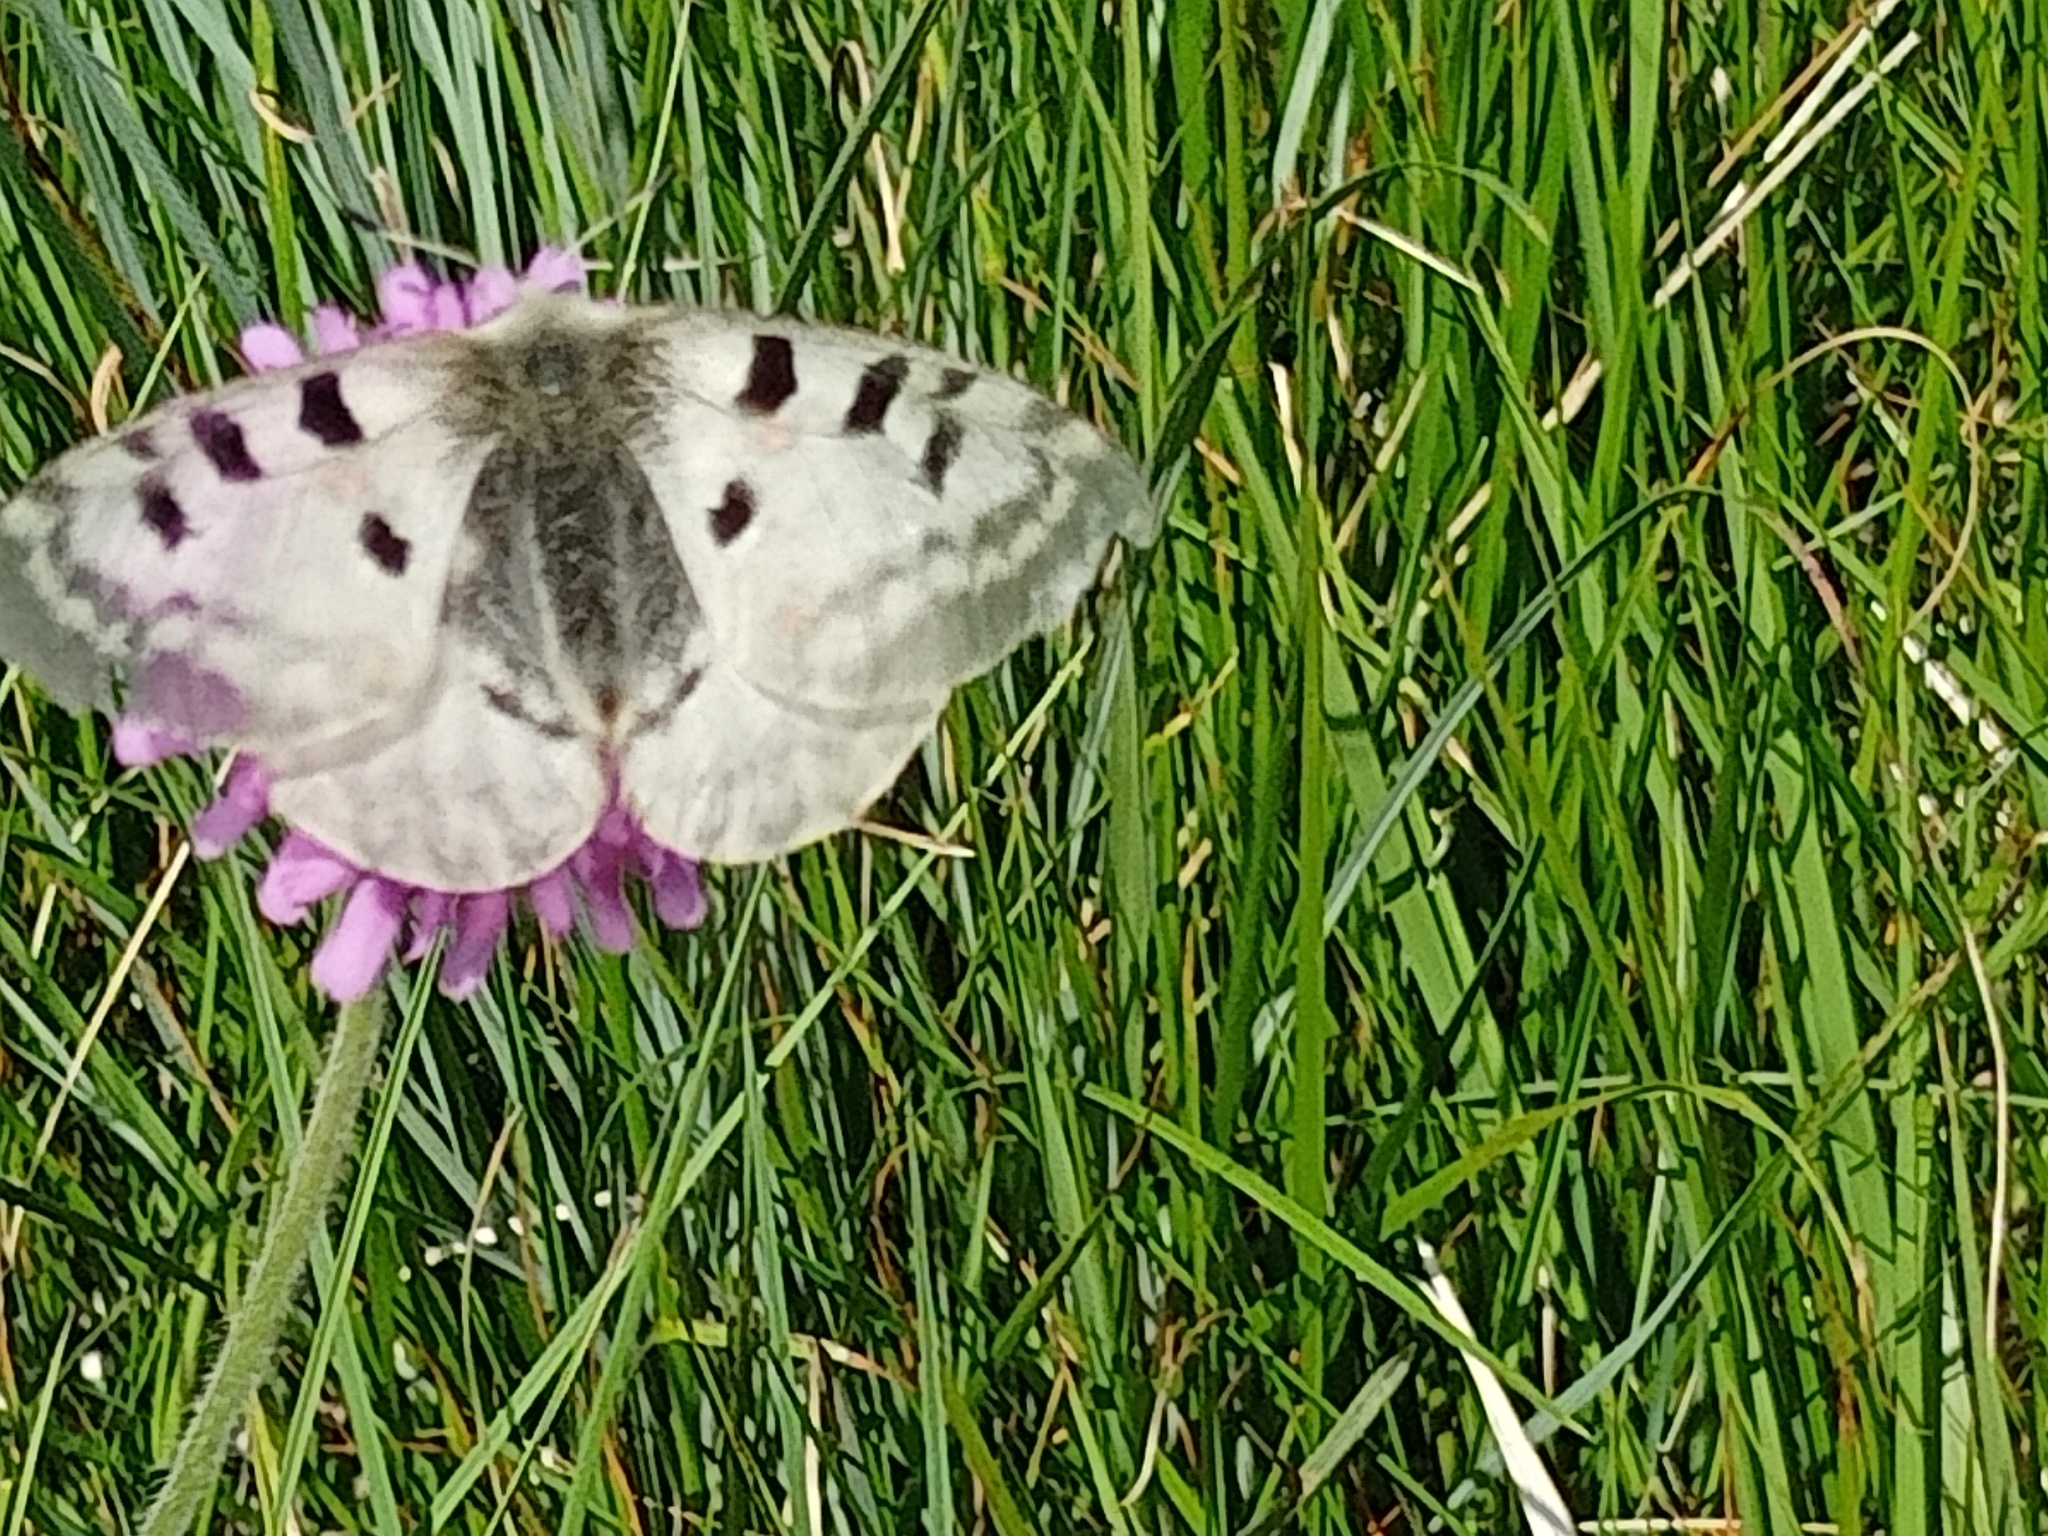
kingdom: Animalia
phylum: Arthropoda
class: Insecta
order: Lepidoptera
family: Papilionidae
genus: Parnassius
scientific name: Parnassius apollo
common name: Apollo
